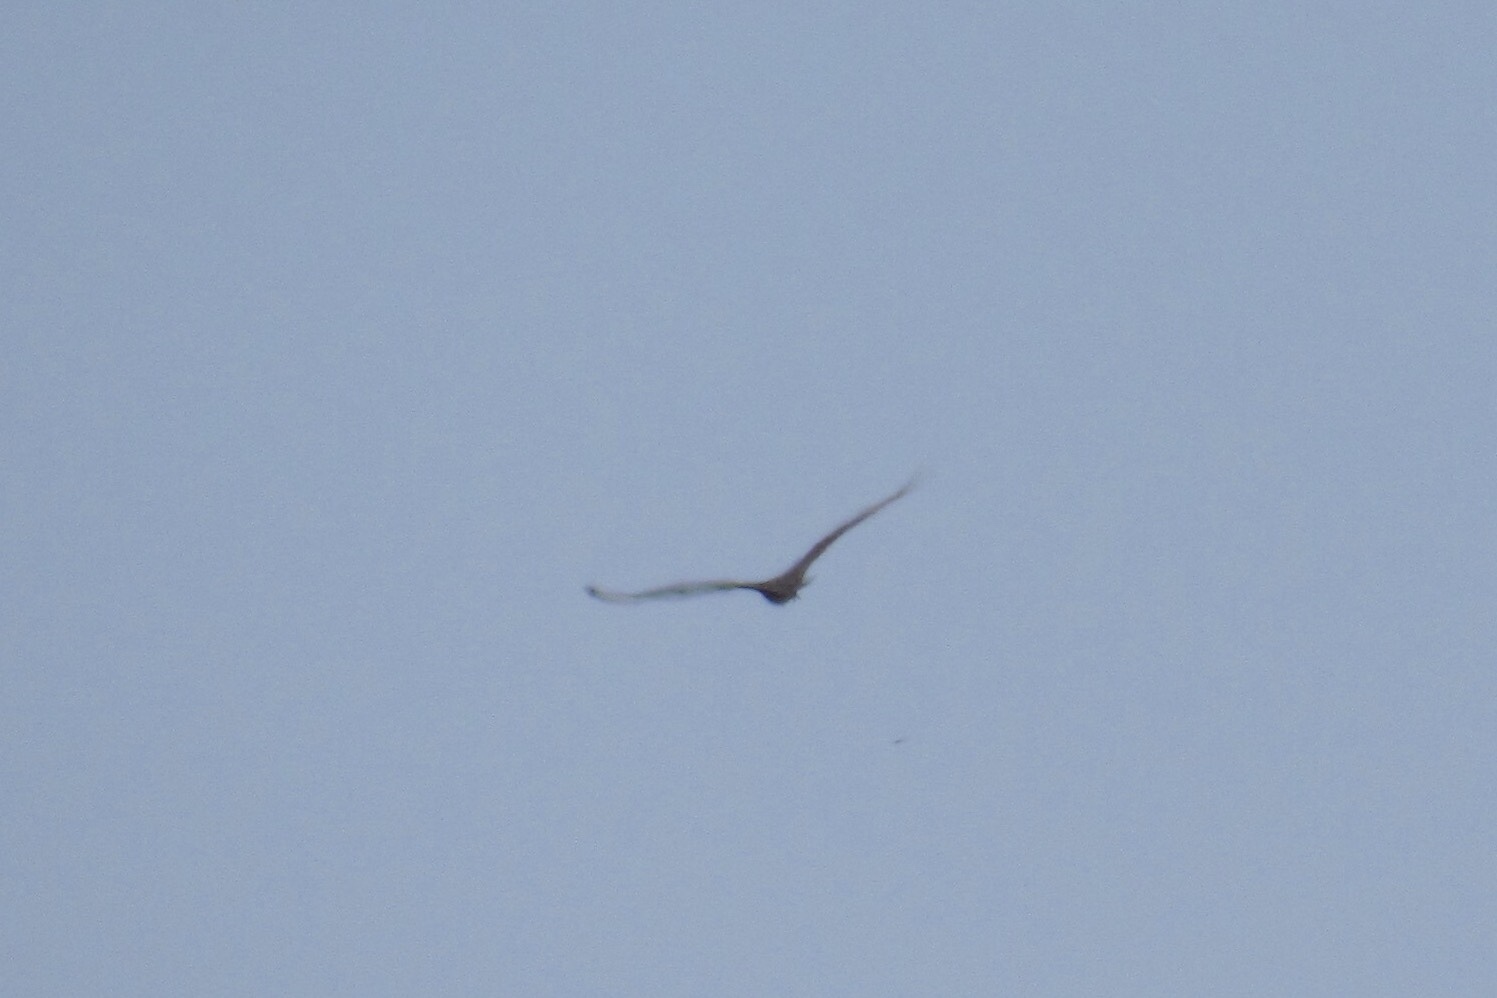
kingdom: Animalia
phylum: Chordata
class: Aves
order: Accipitriformes
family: Cathartidae
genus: Cathartes
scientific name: Cathartes aura
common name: Turkey vulture
